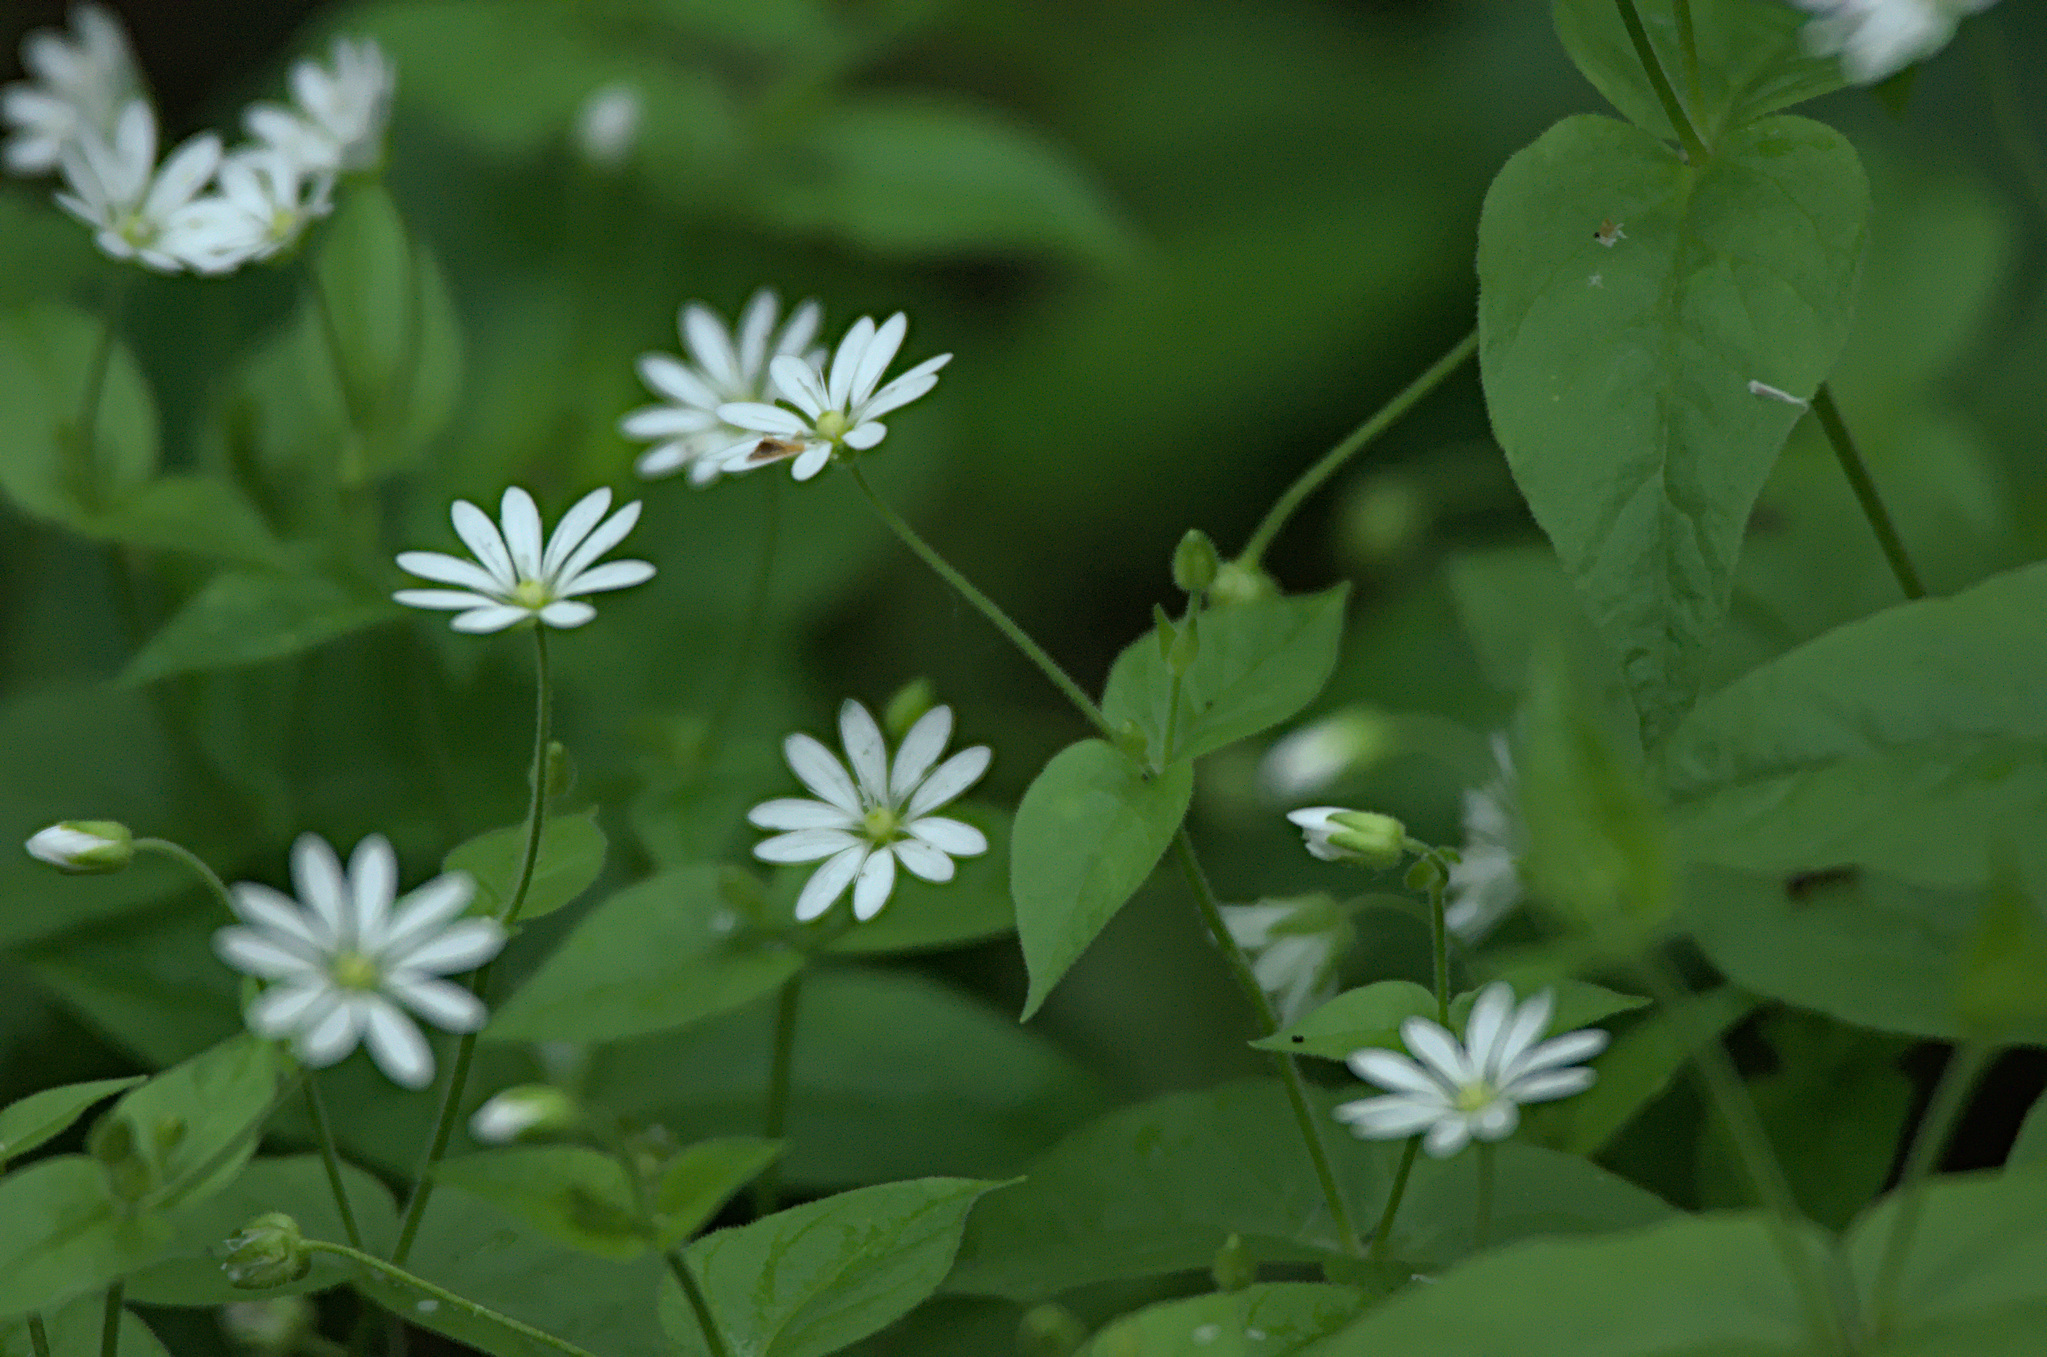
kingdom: Plantae
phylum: Tracheophyta
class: Magnoliopsida
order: Caryophyllales
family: Caryophyllaceae
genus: Stellaria
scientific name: Stellaria bungeana
